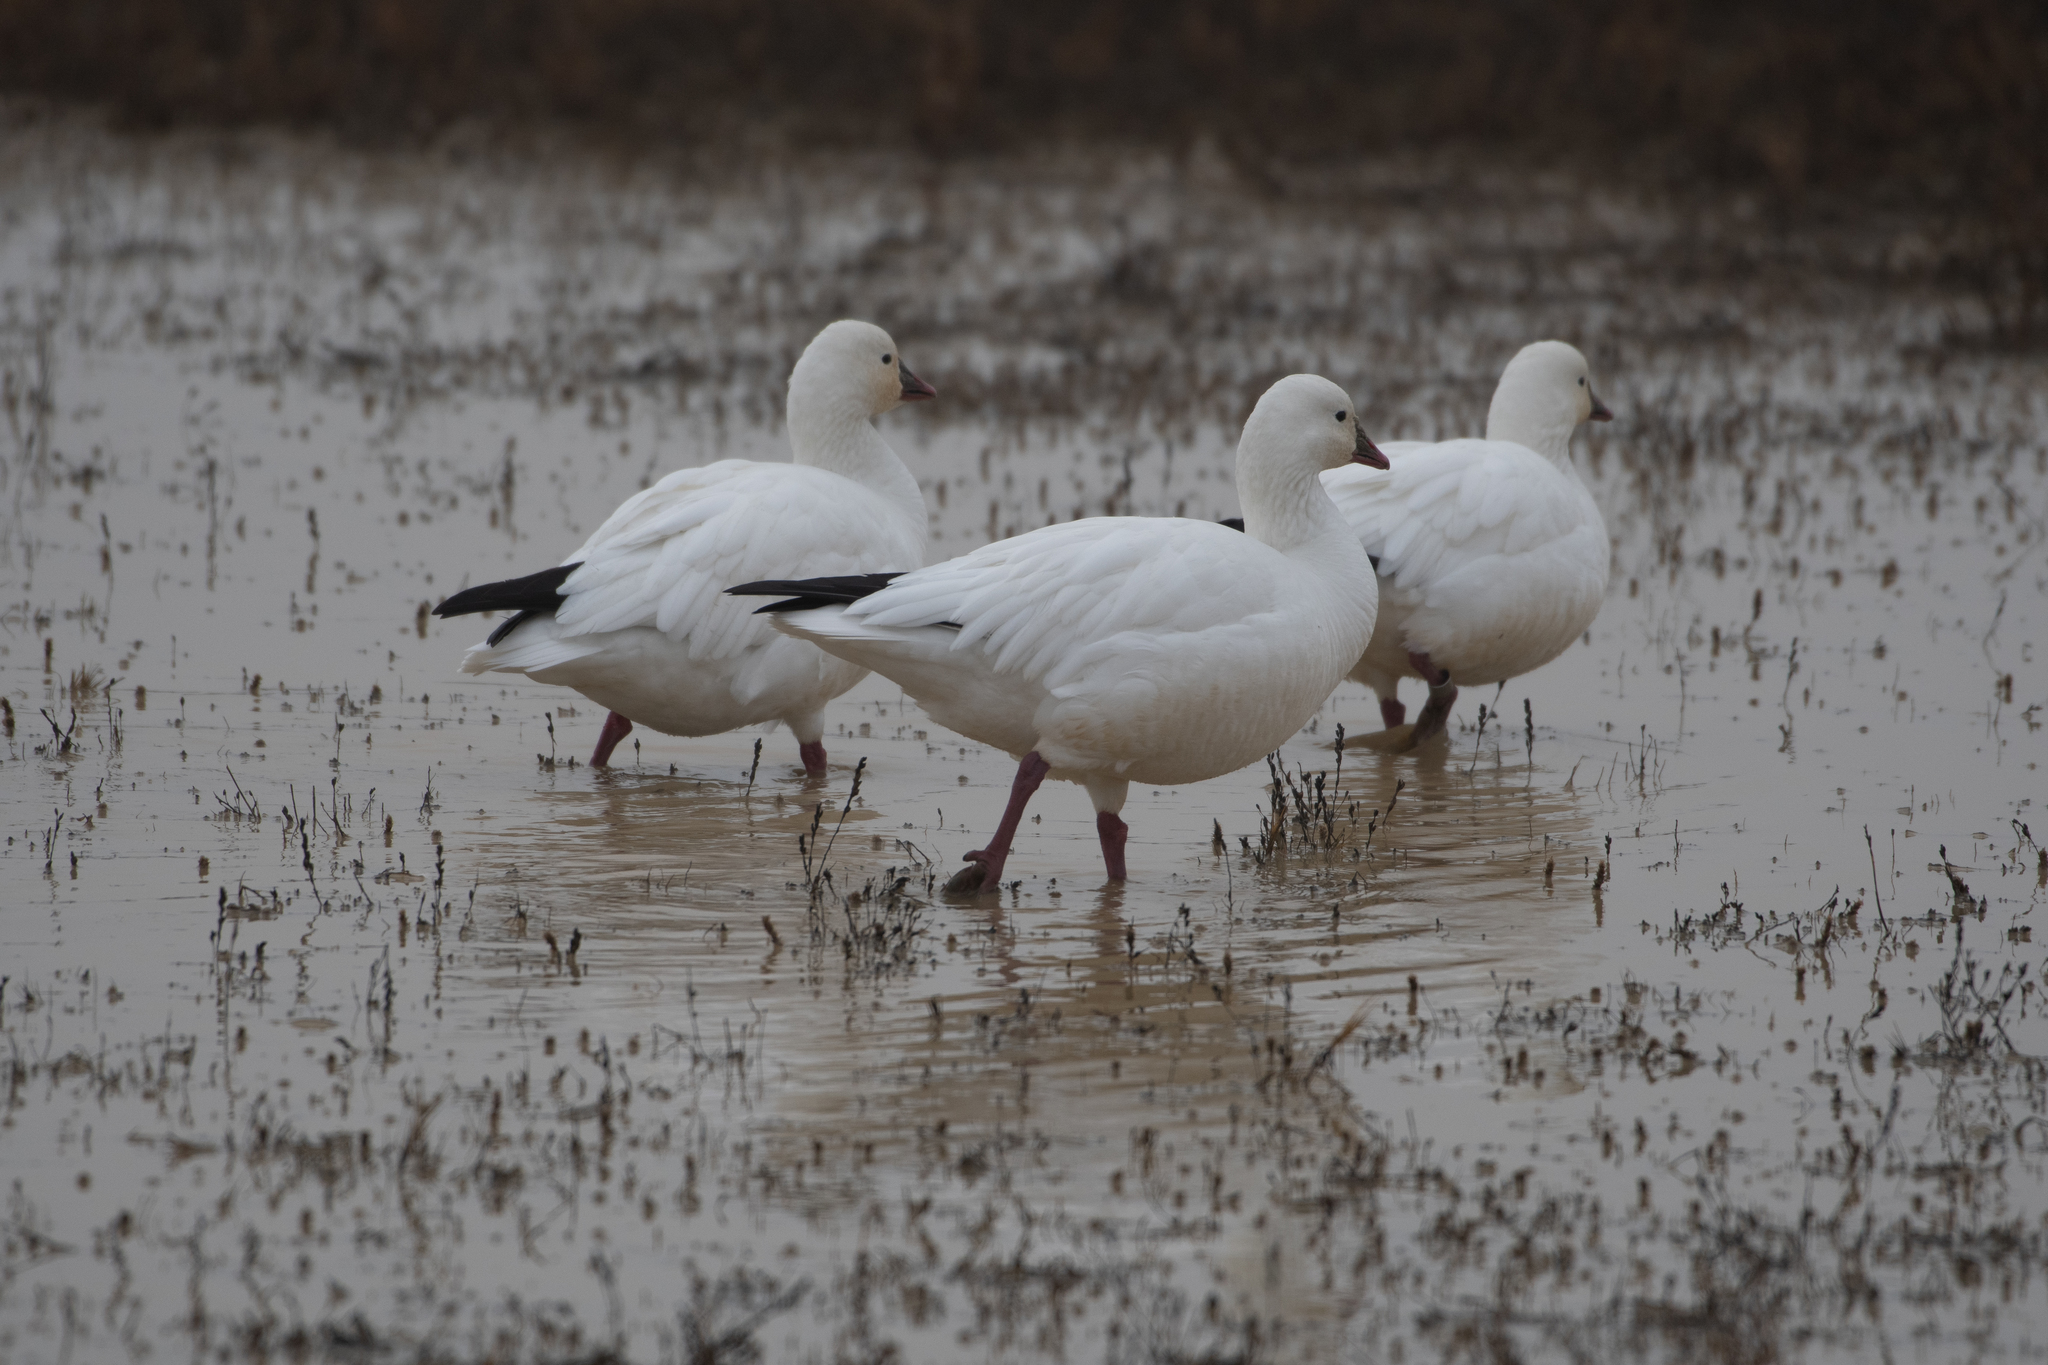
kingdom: Animalia
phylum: Chordata
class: Aves
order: Anseriformes
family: Anatidae
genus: Anser
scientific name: Anser rossii
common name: Ross's goose
